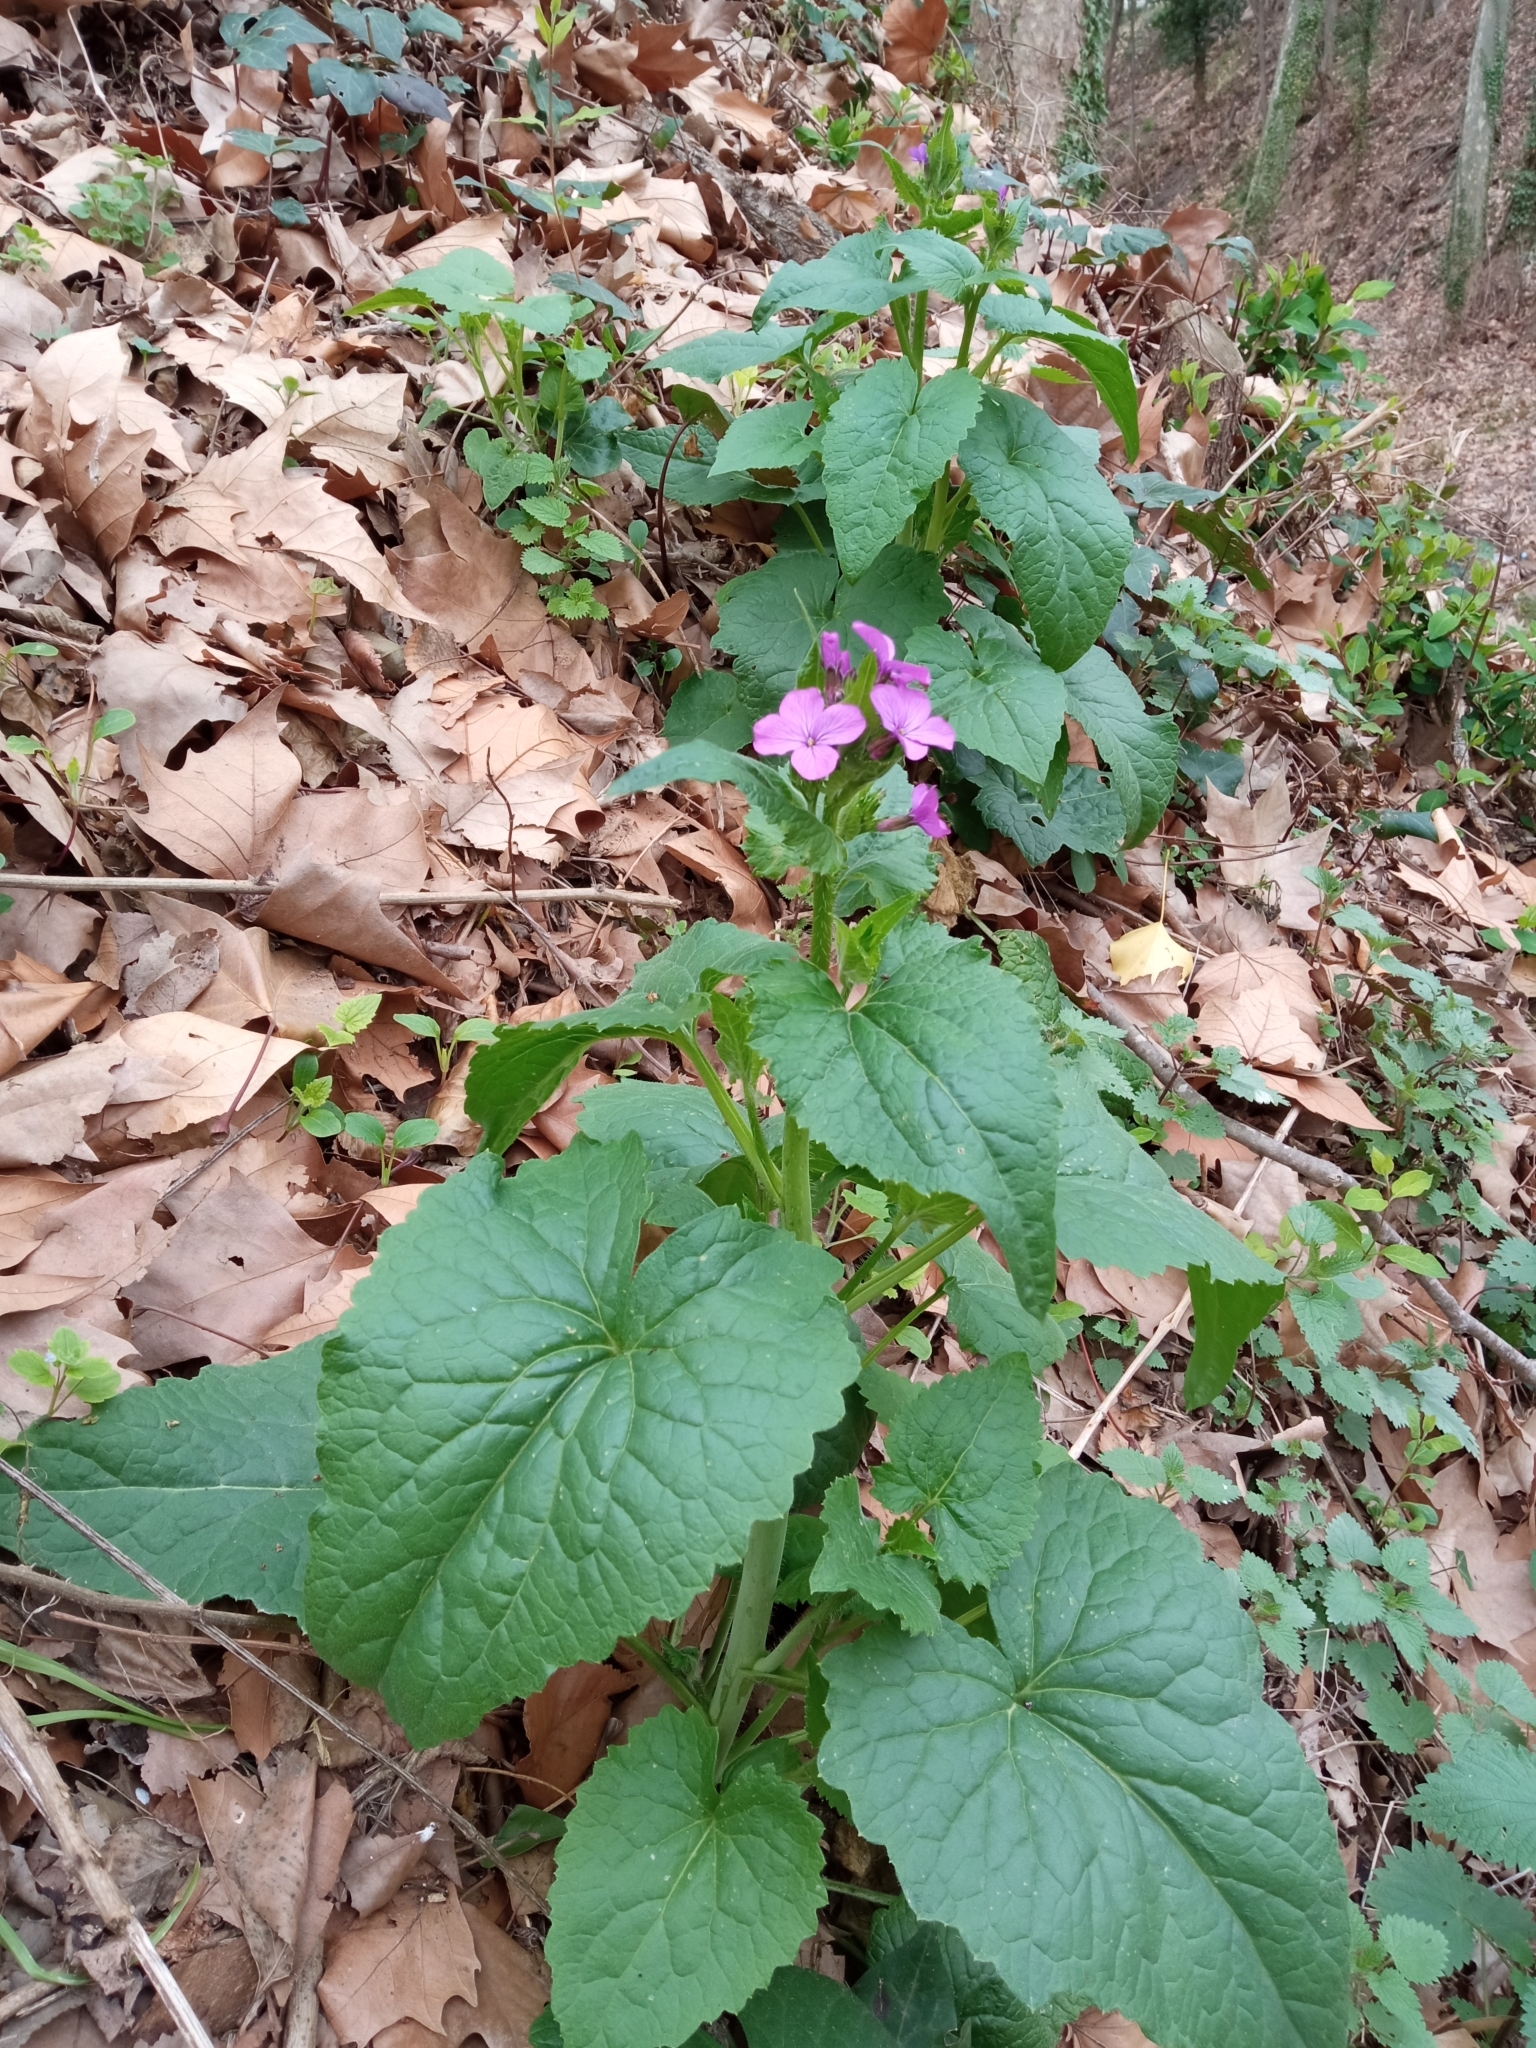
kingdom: Plantae
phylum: Tracheophyta
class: Magnoliopsida
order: Brassicales
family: Brassicaceae
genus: Lunaria
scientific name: Lunaria annua
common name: Honesty
